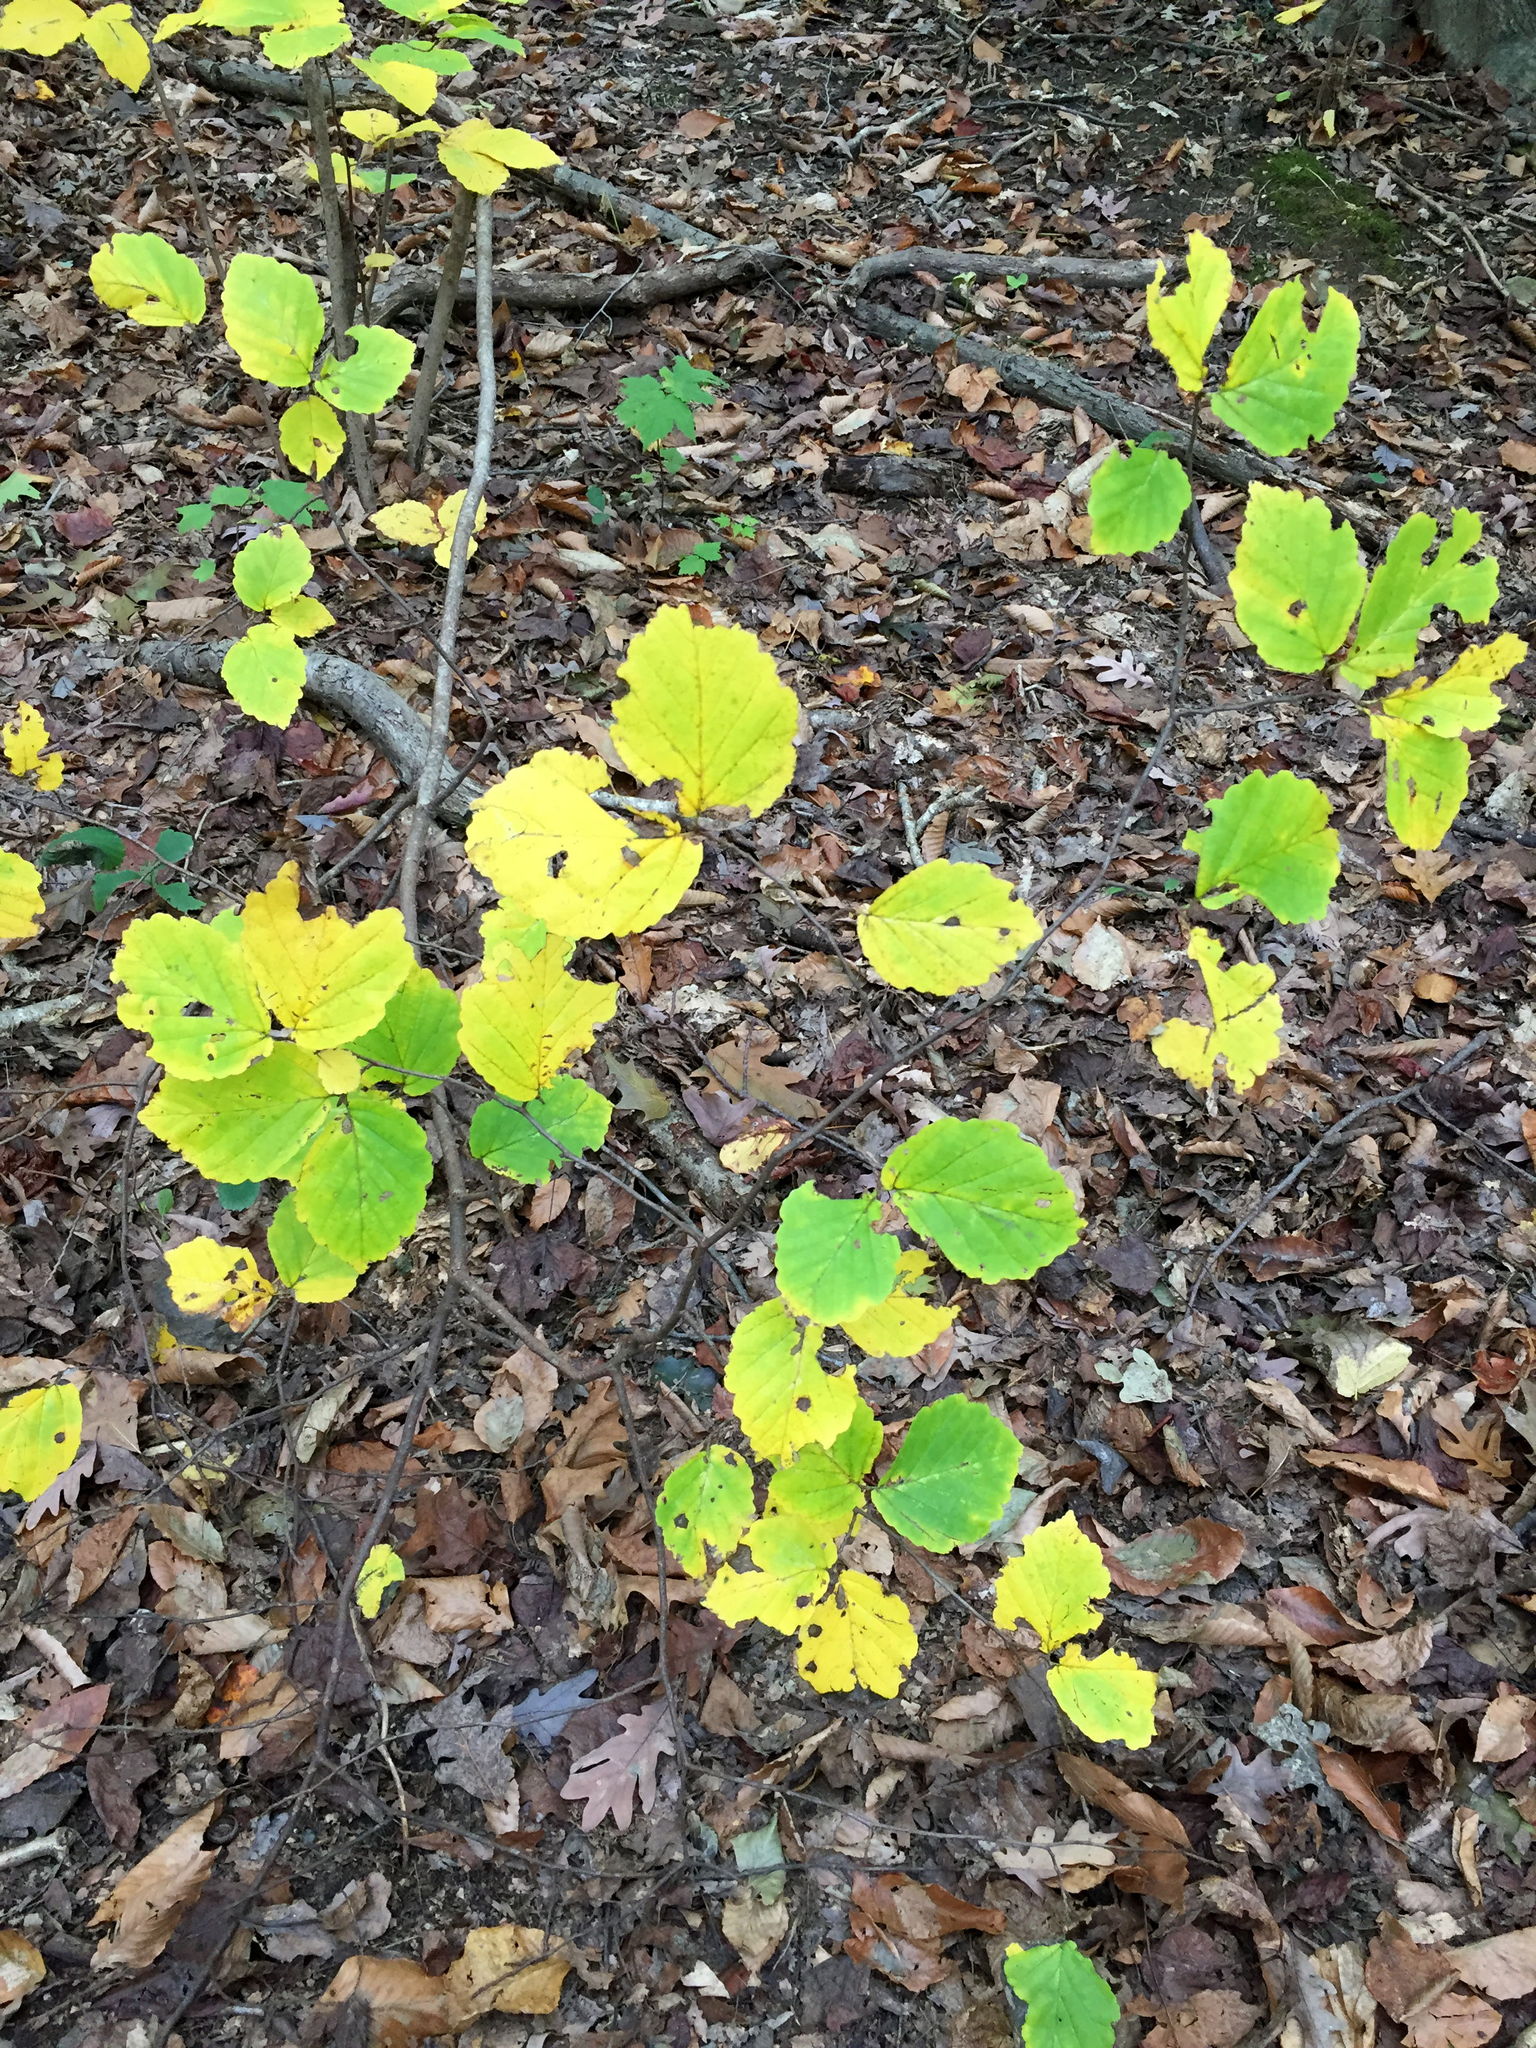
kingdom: Plantae
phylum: Tracheophyta
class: Magnoliopsida
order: Saxifragales
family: Hamamelidaceae
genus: Hamamelis
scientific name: Hamamelis virginiana
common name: Witch-hazel
